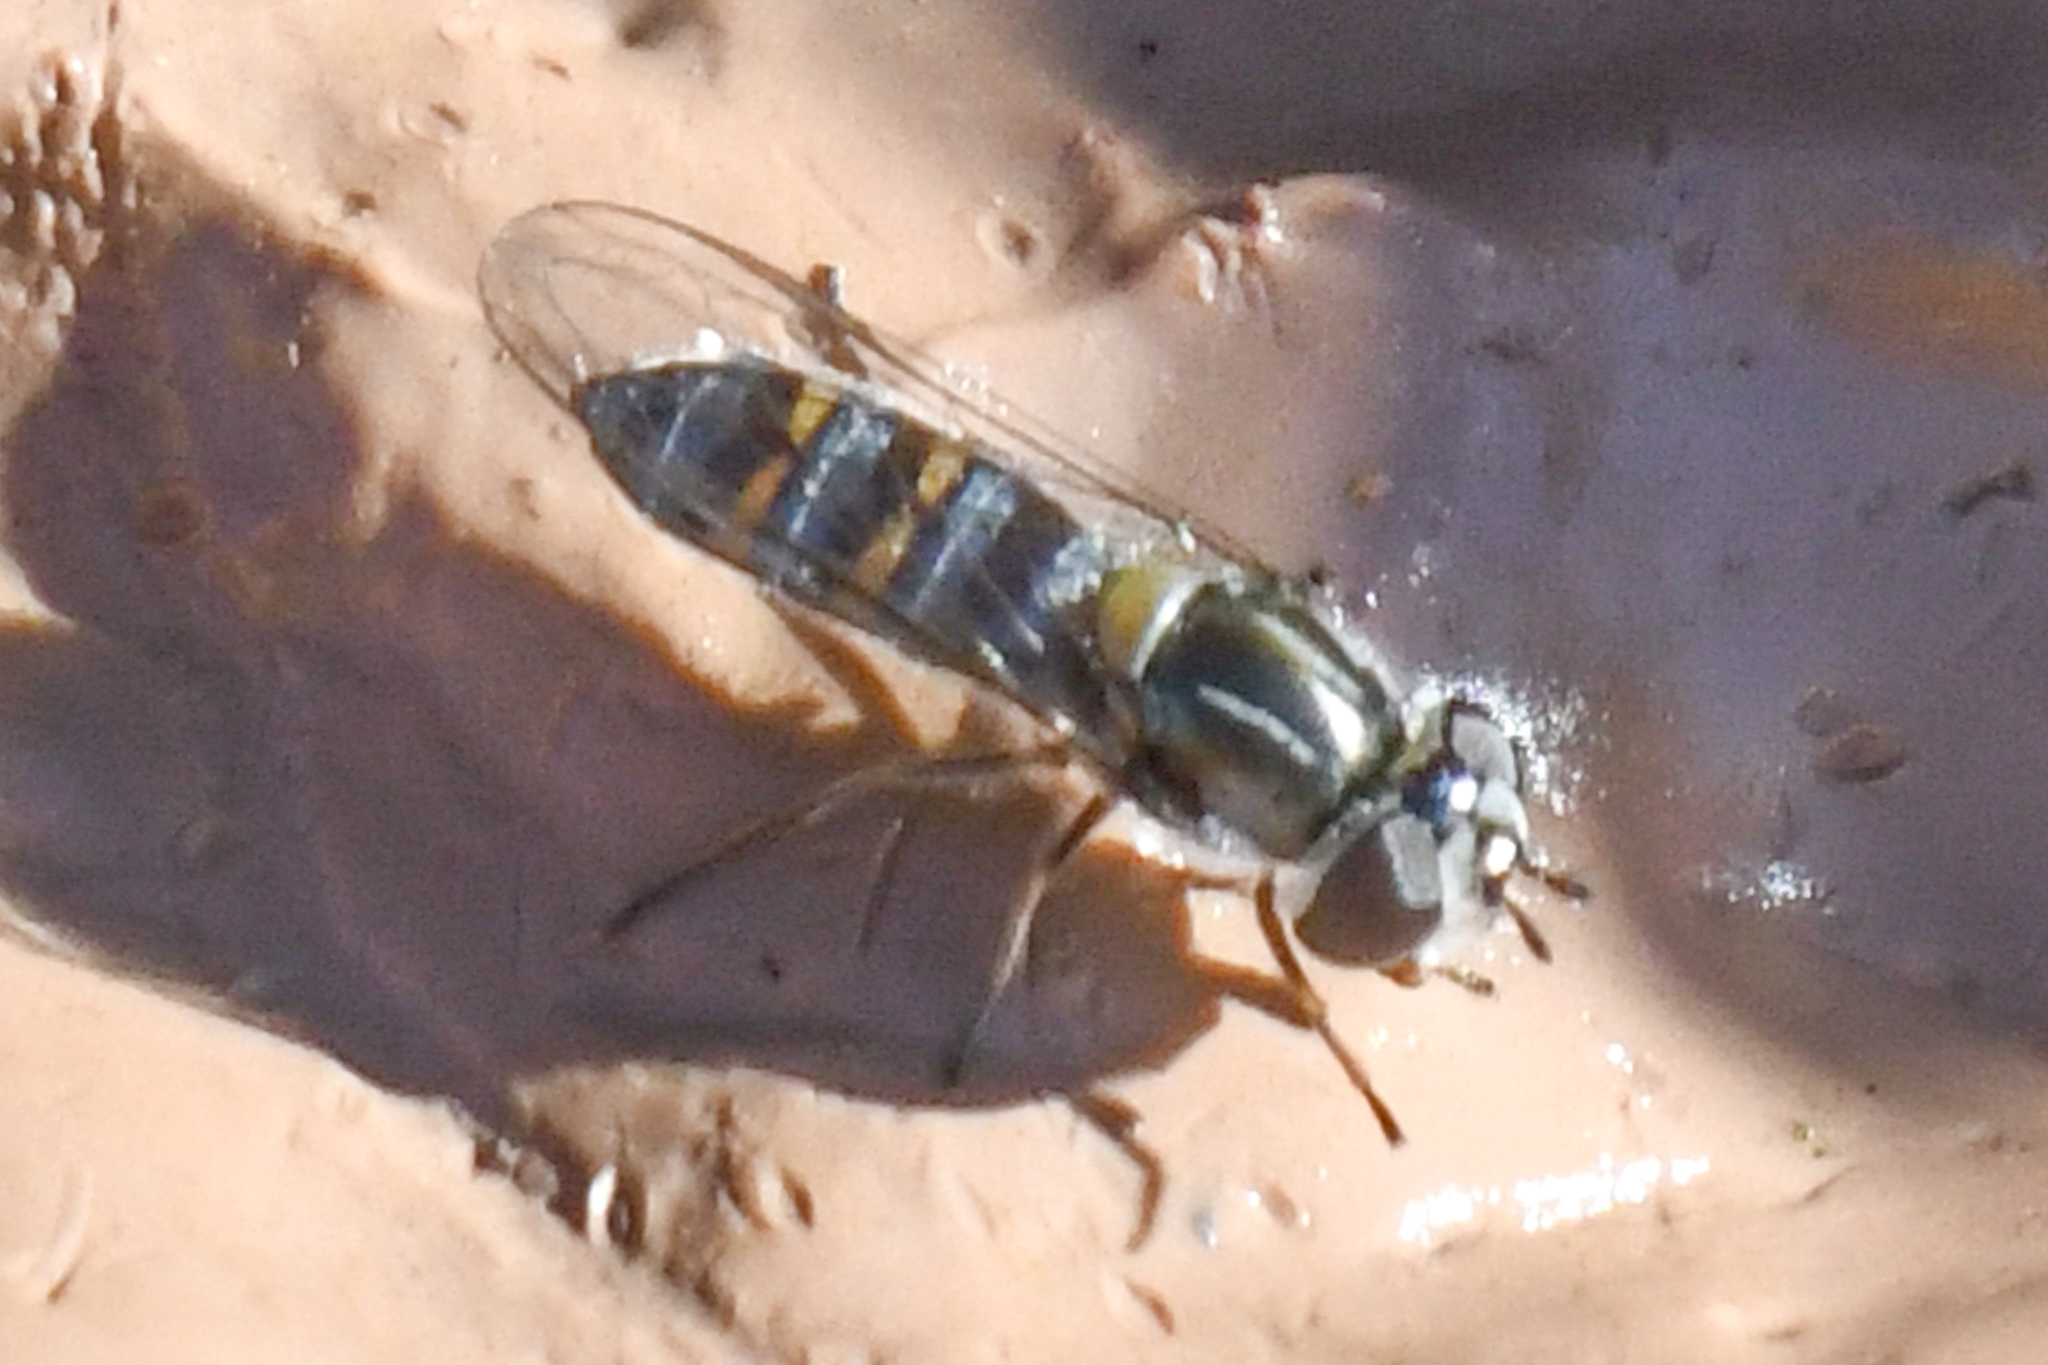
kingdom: Animalia
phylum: Arthropoda
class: Insecta
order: Diptera
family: Syrphidae
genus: Pseudoscaeva
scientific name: Pseudoscaeva diversifasciata
